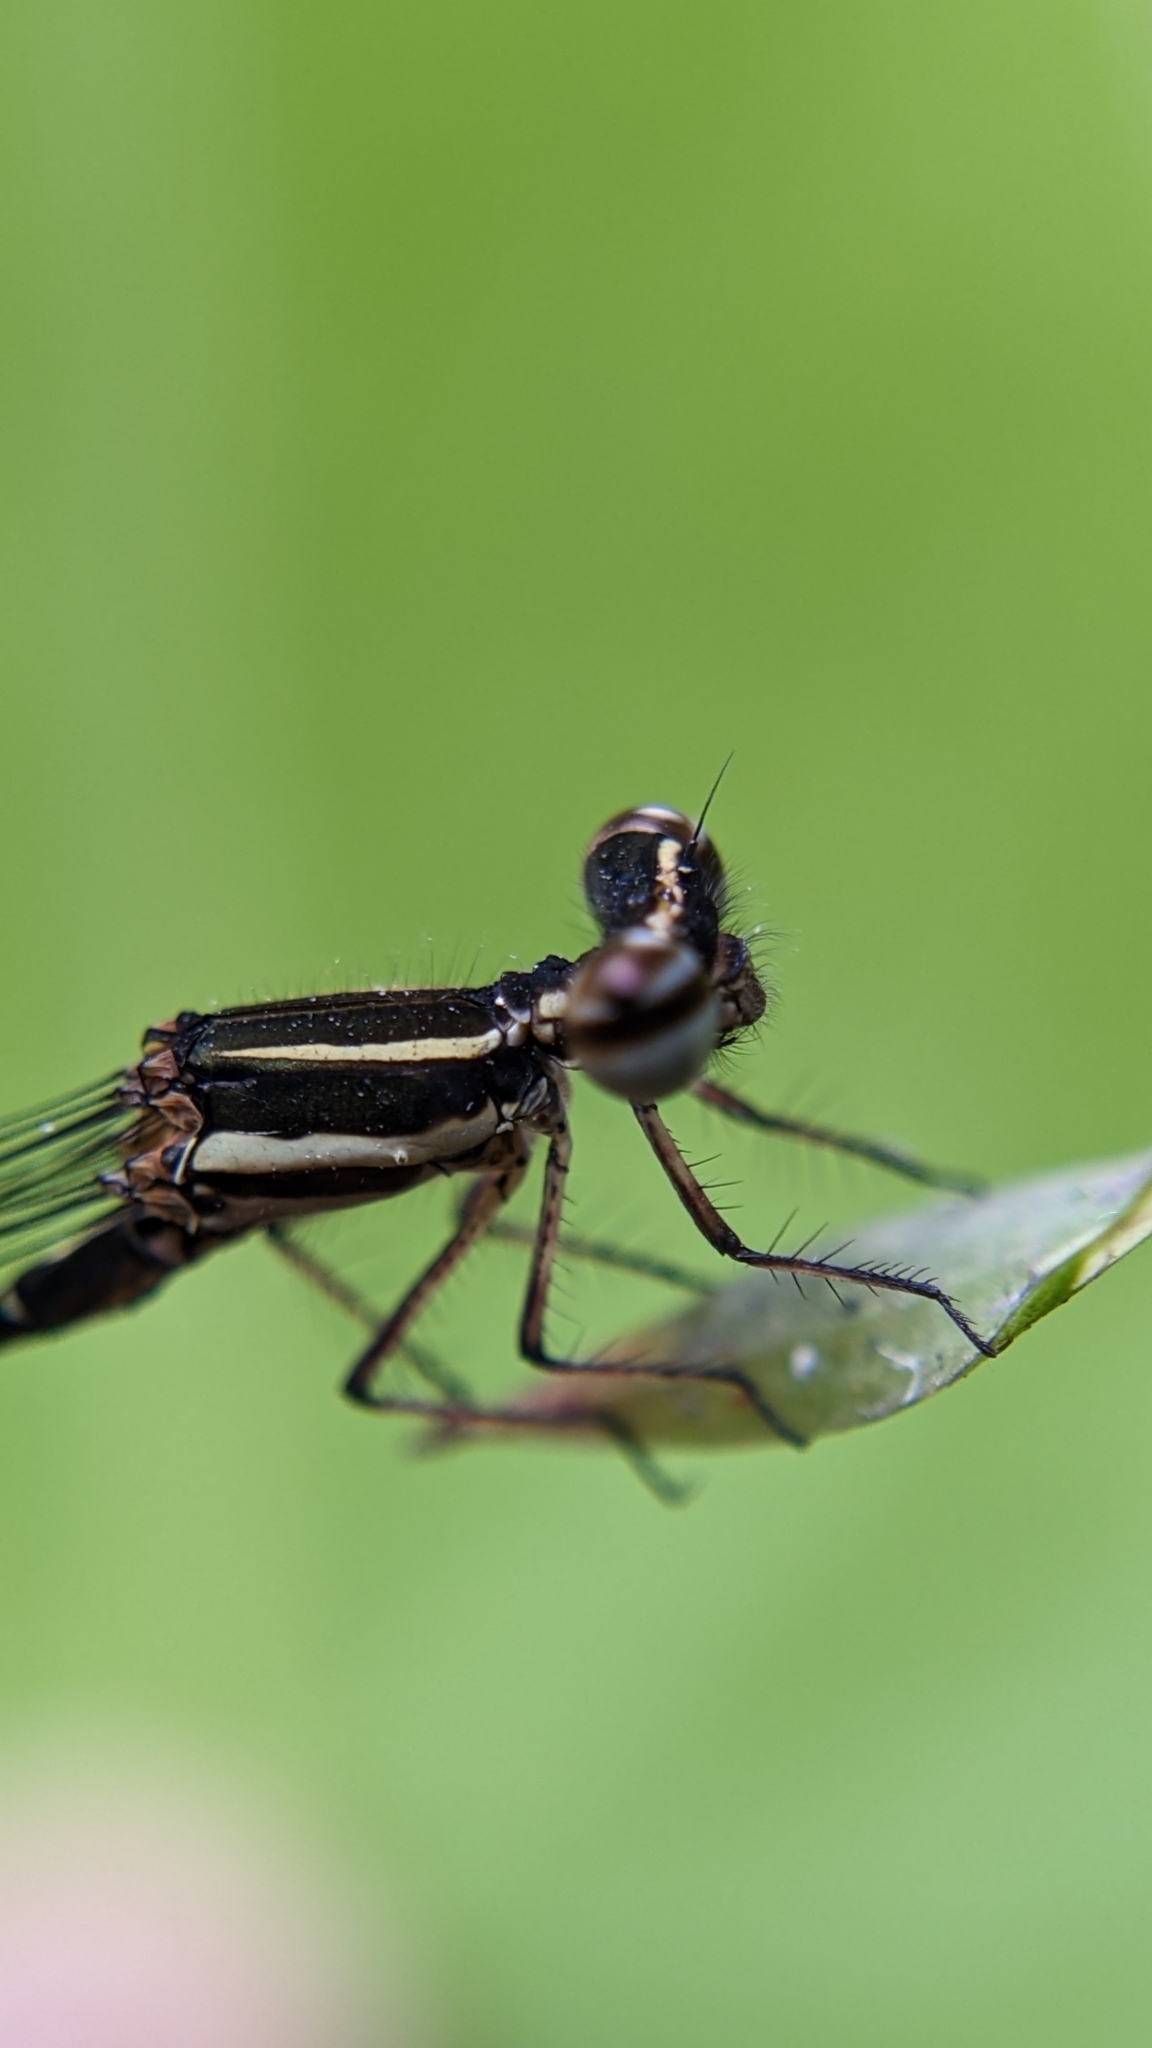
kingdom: Animalia
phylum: Arthropoda
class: Insecta
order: Odonata
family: Platycnemididae
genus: Prodasineura
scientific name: Prodasineura verticalis
